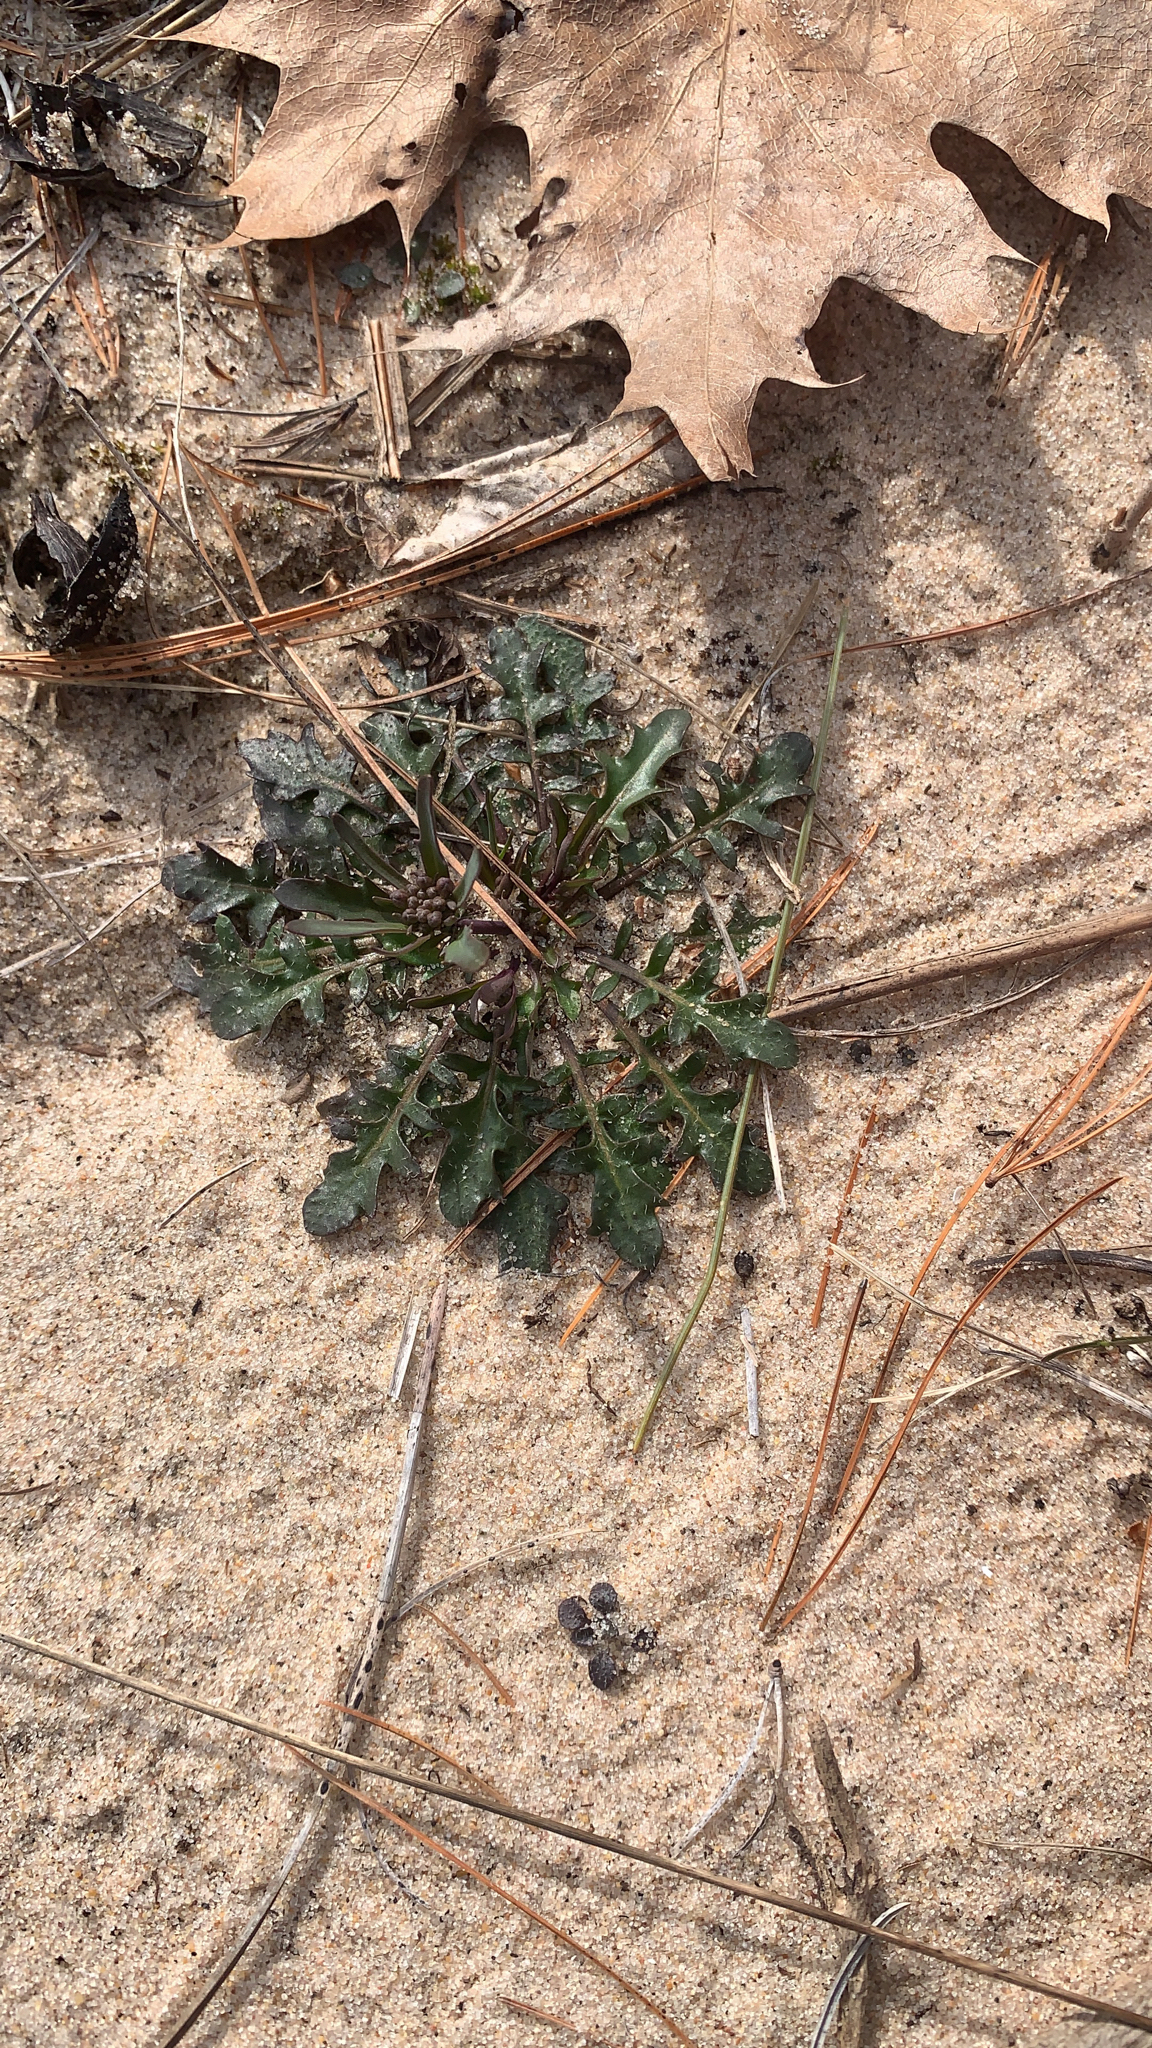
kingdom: Plantae
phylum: Tracheophyta
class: Magnoliopsida
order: Brassicales
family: Brassicaceae
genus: Arabidopsis
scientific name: Arabidopsis lyrata
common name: Lyrate rockcress
